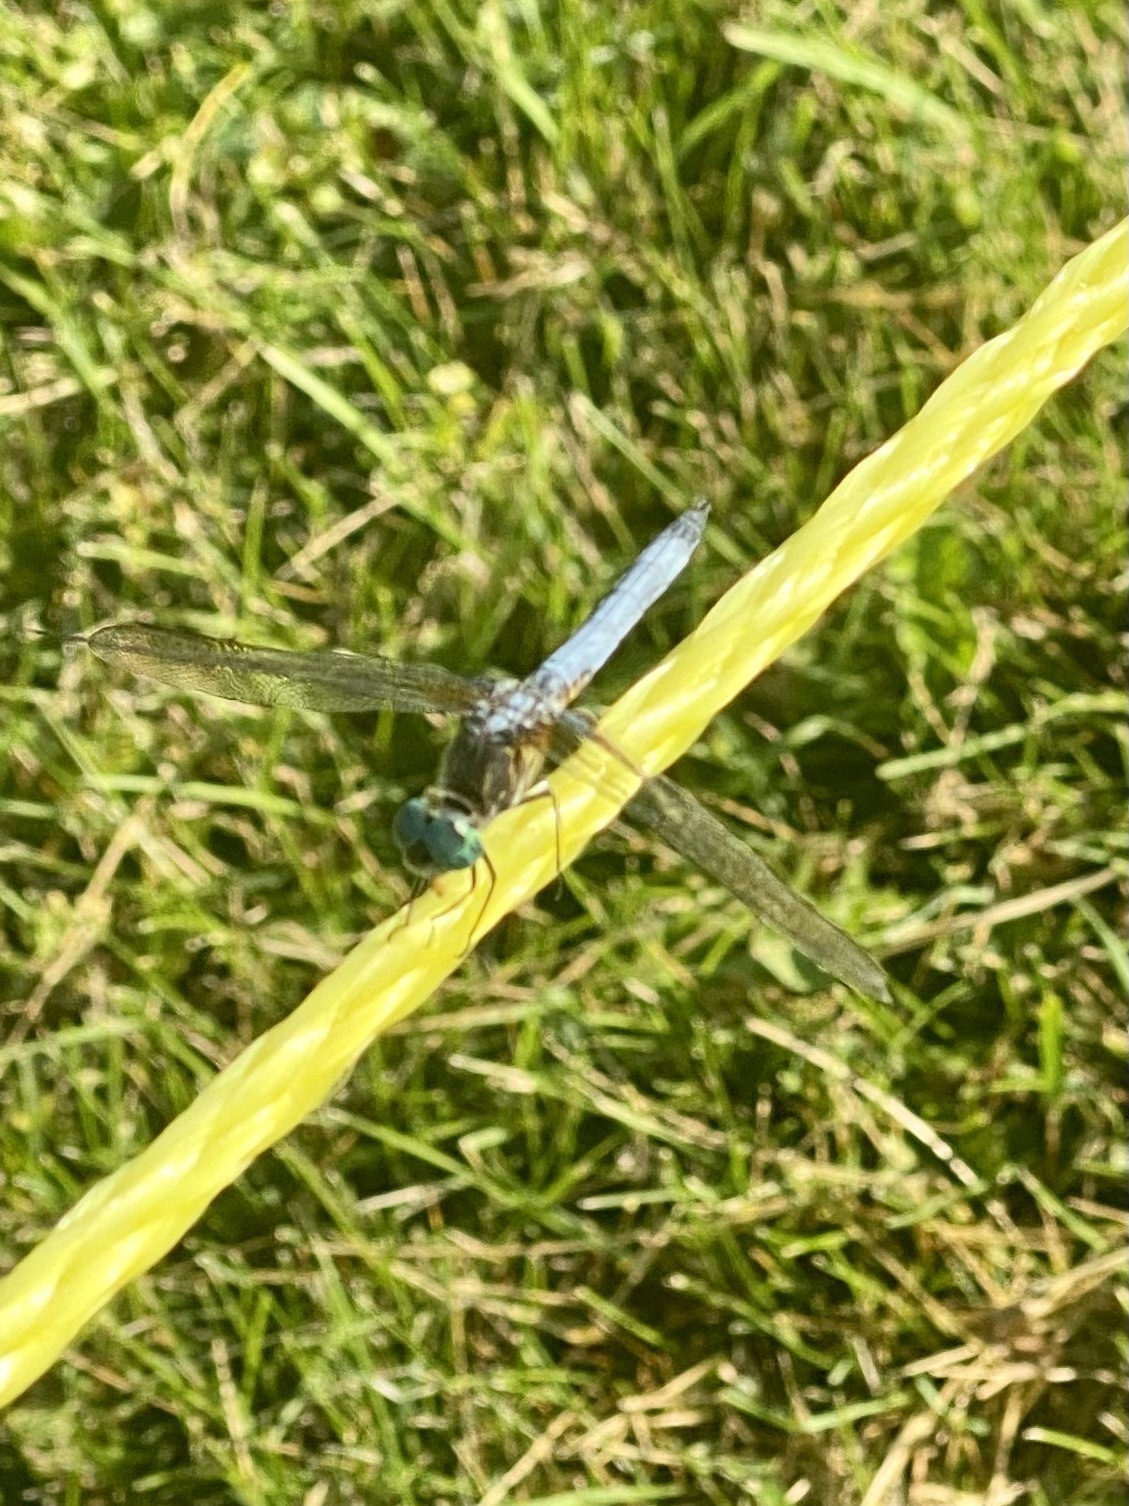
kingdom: Animalia
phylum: Arthropoda
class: Insecta
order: Odonata
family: Libellulidae
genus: Pachydiplax
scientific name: Pachydiplax longipennis
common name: Blue dasher
